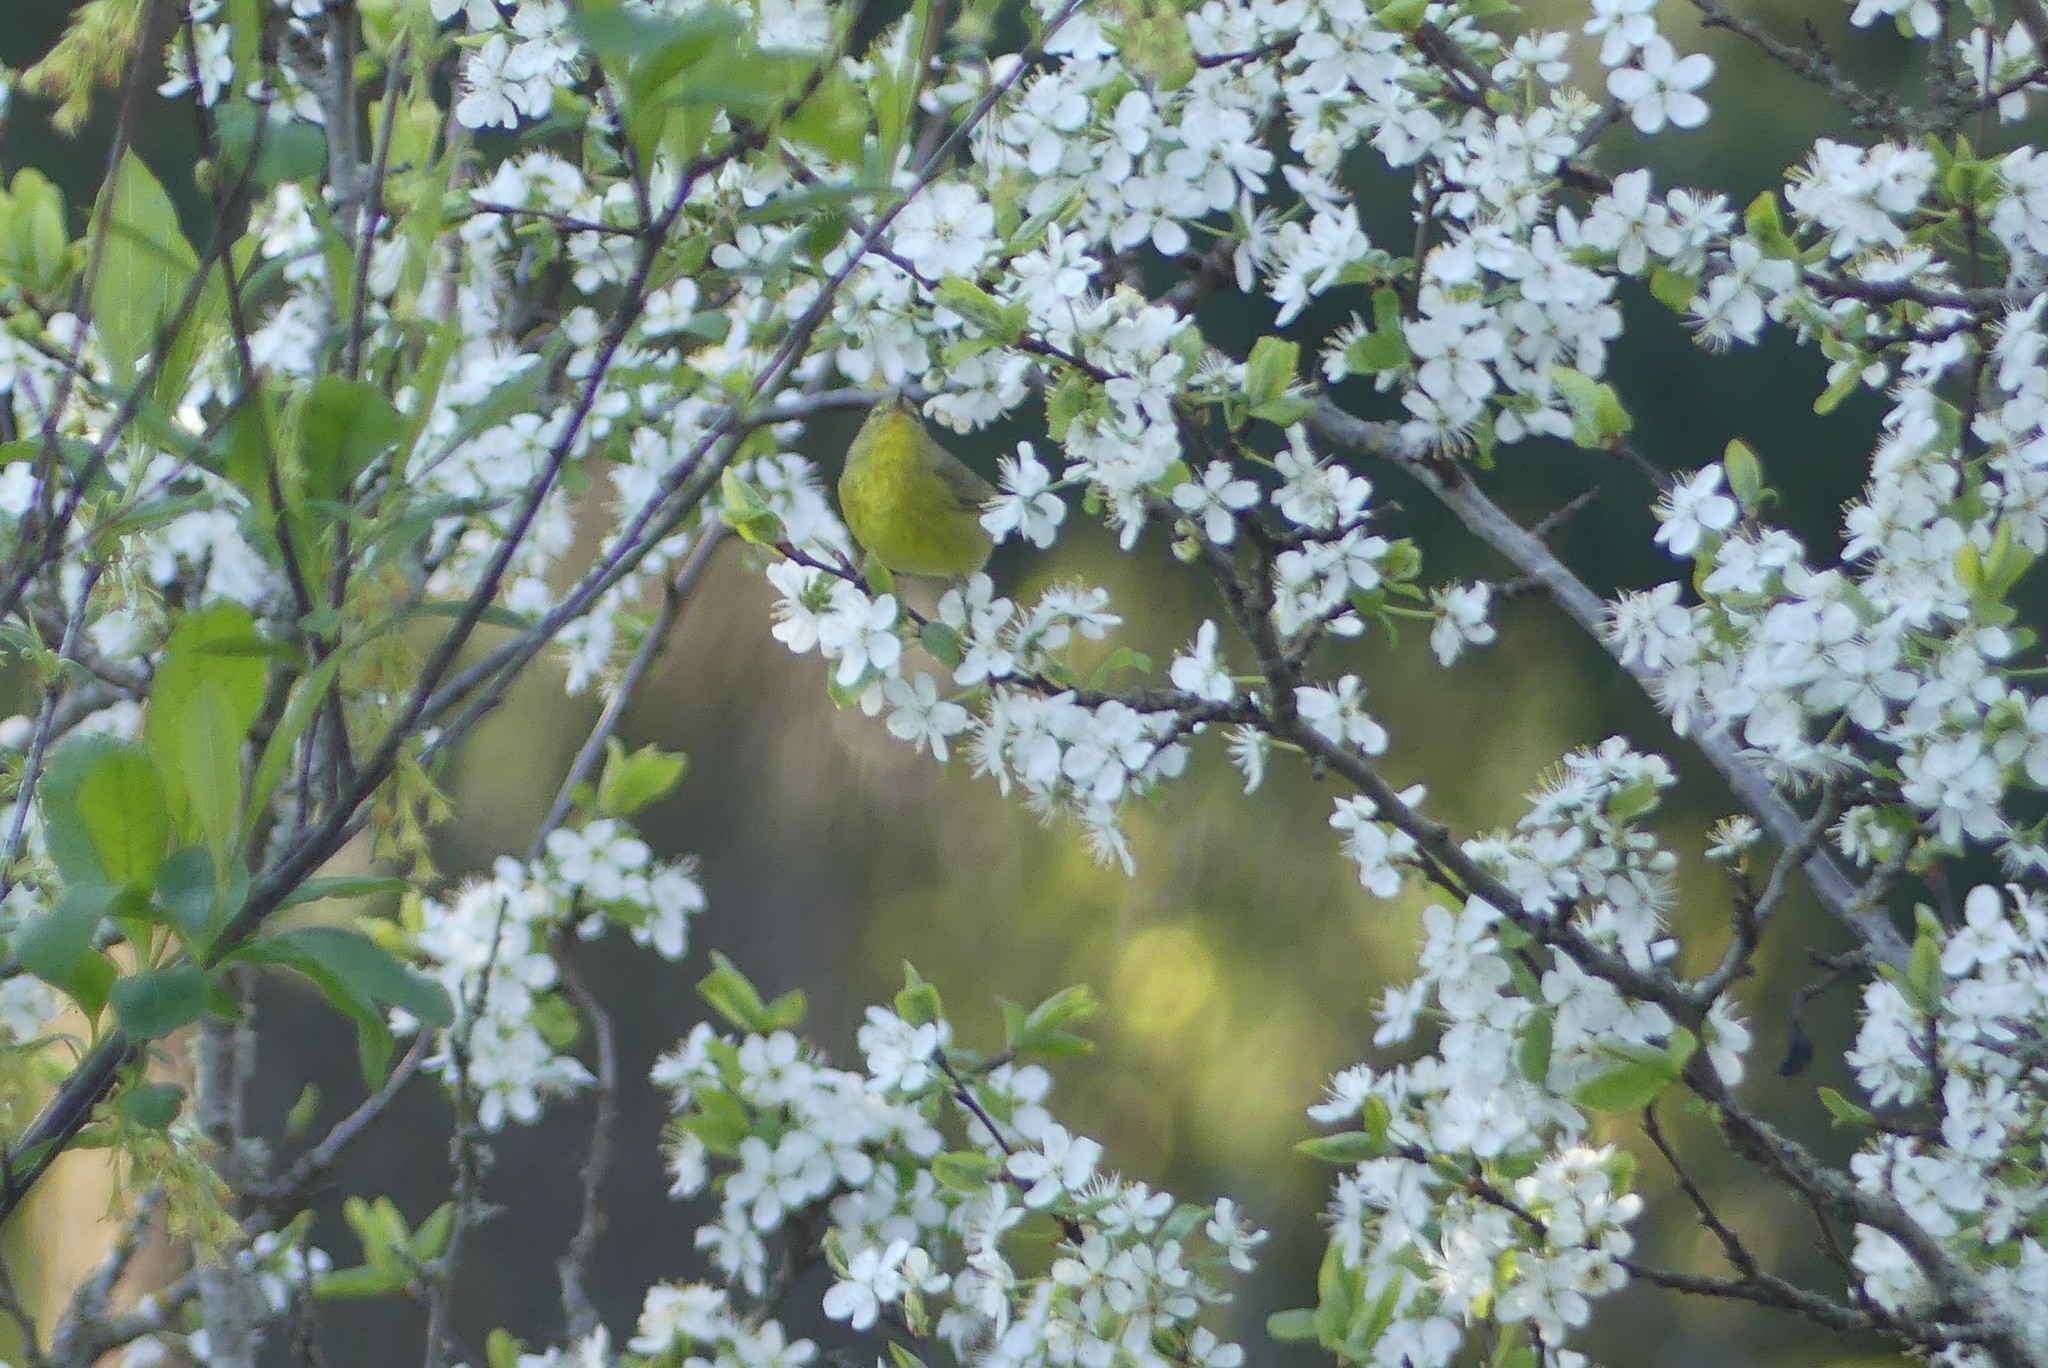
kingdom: Animalia
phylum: Chordata
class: Aves
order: Passeriformes
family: Parulidae
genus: Leiothlypis
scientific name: Leiothlypis celata
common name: Orange-crowned warbler
